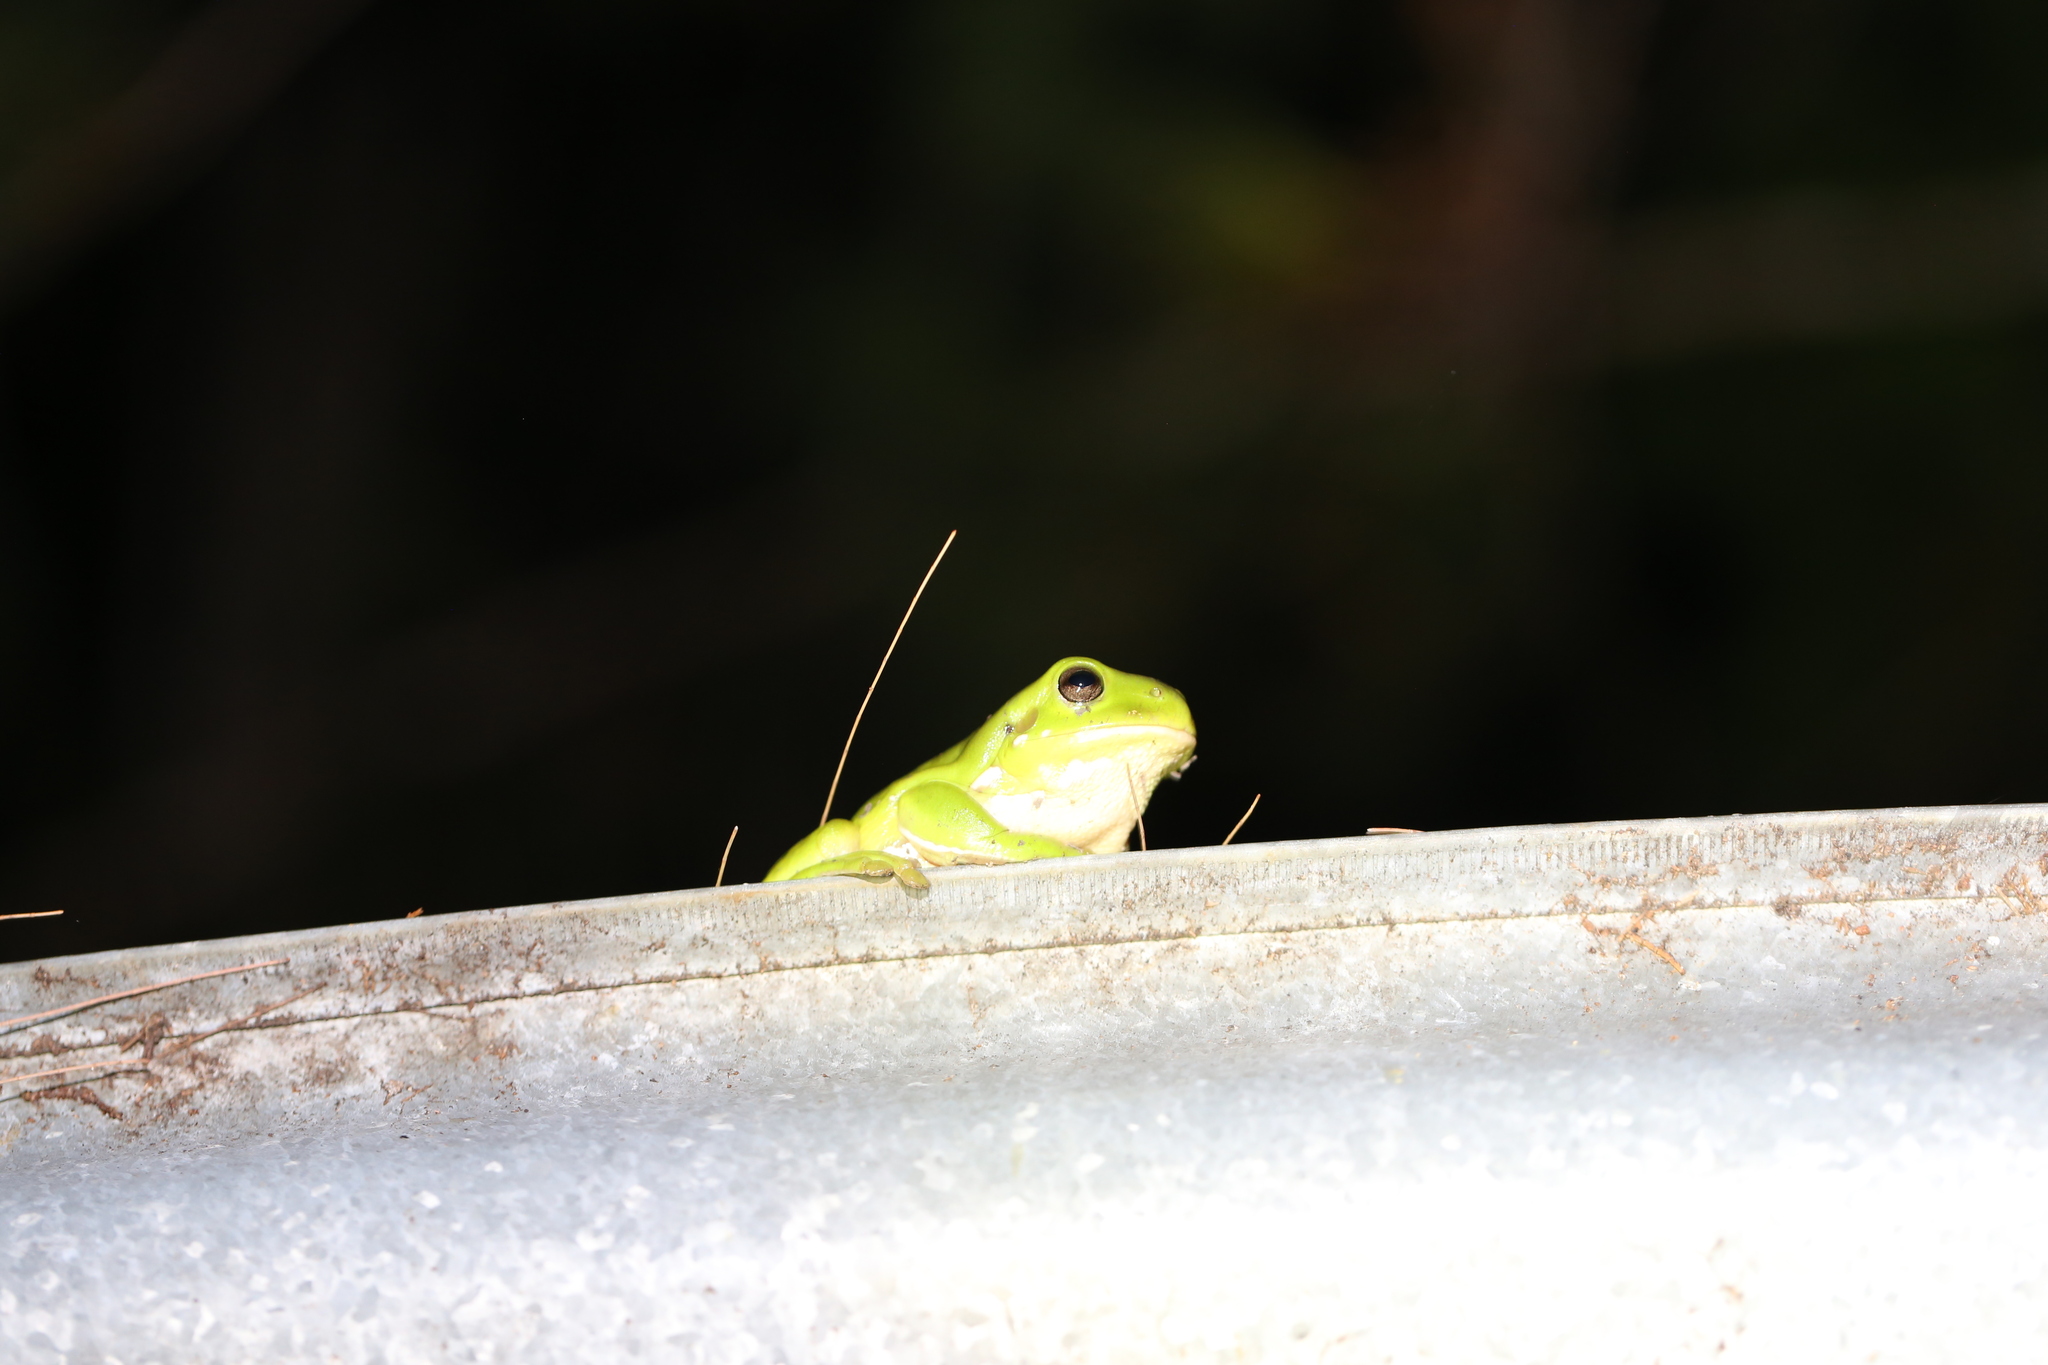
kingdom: Animalia
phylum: Chordata
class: Amphibia
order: Anura
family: Pelodryadidae
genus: Ranoidea
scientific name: Ranoidea caerulea
